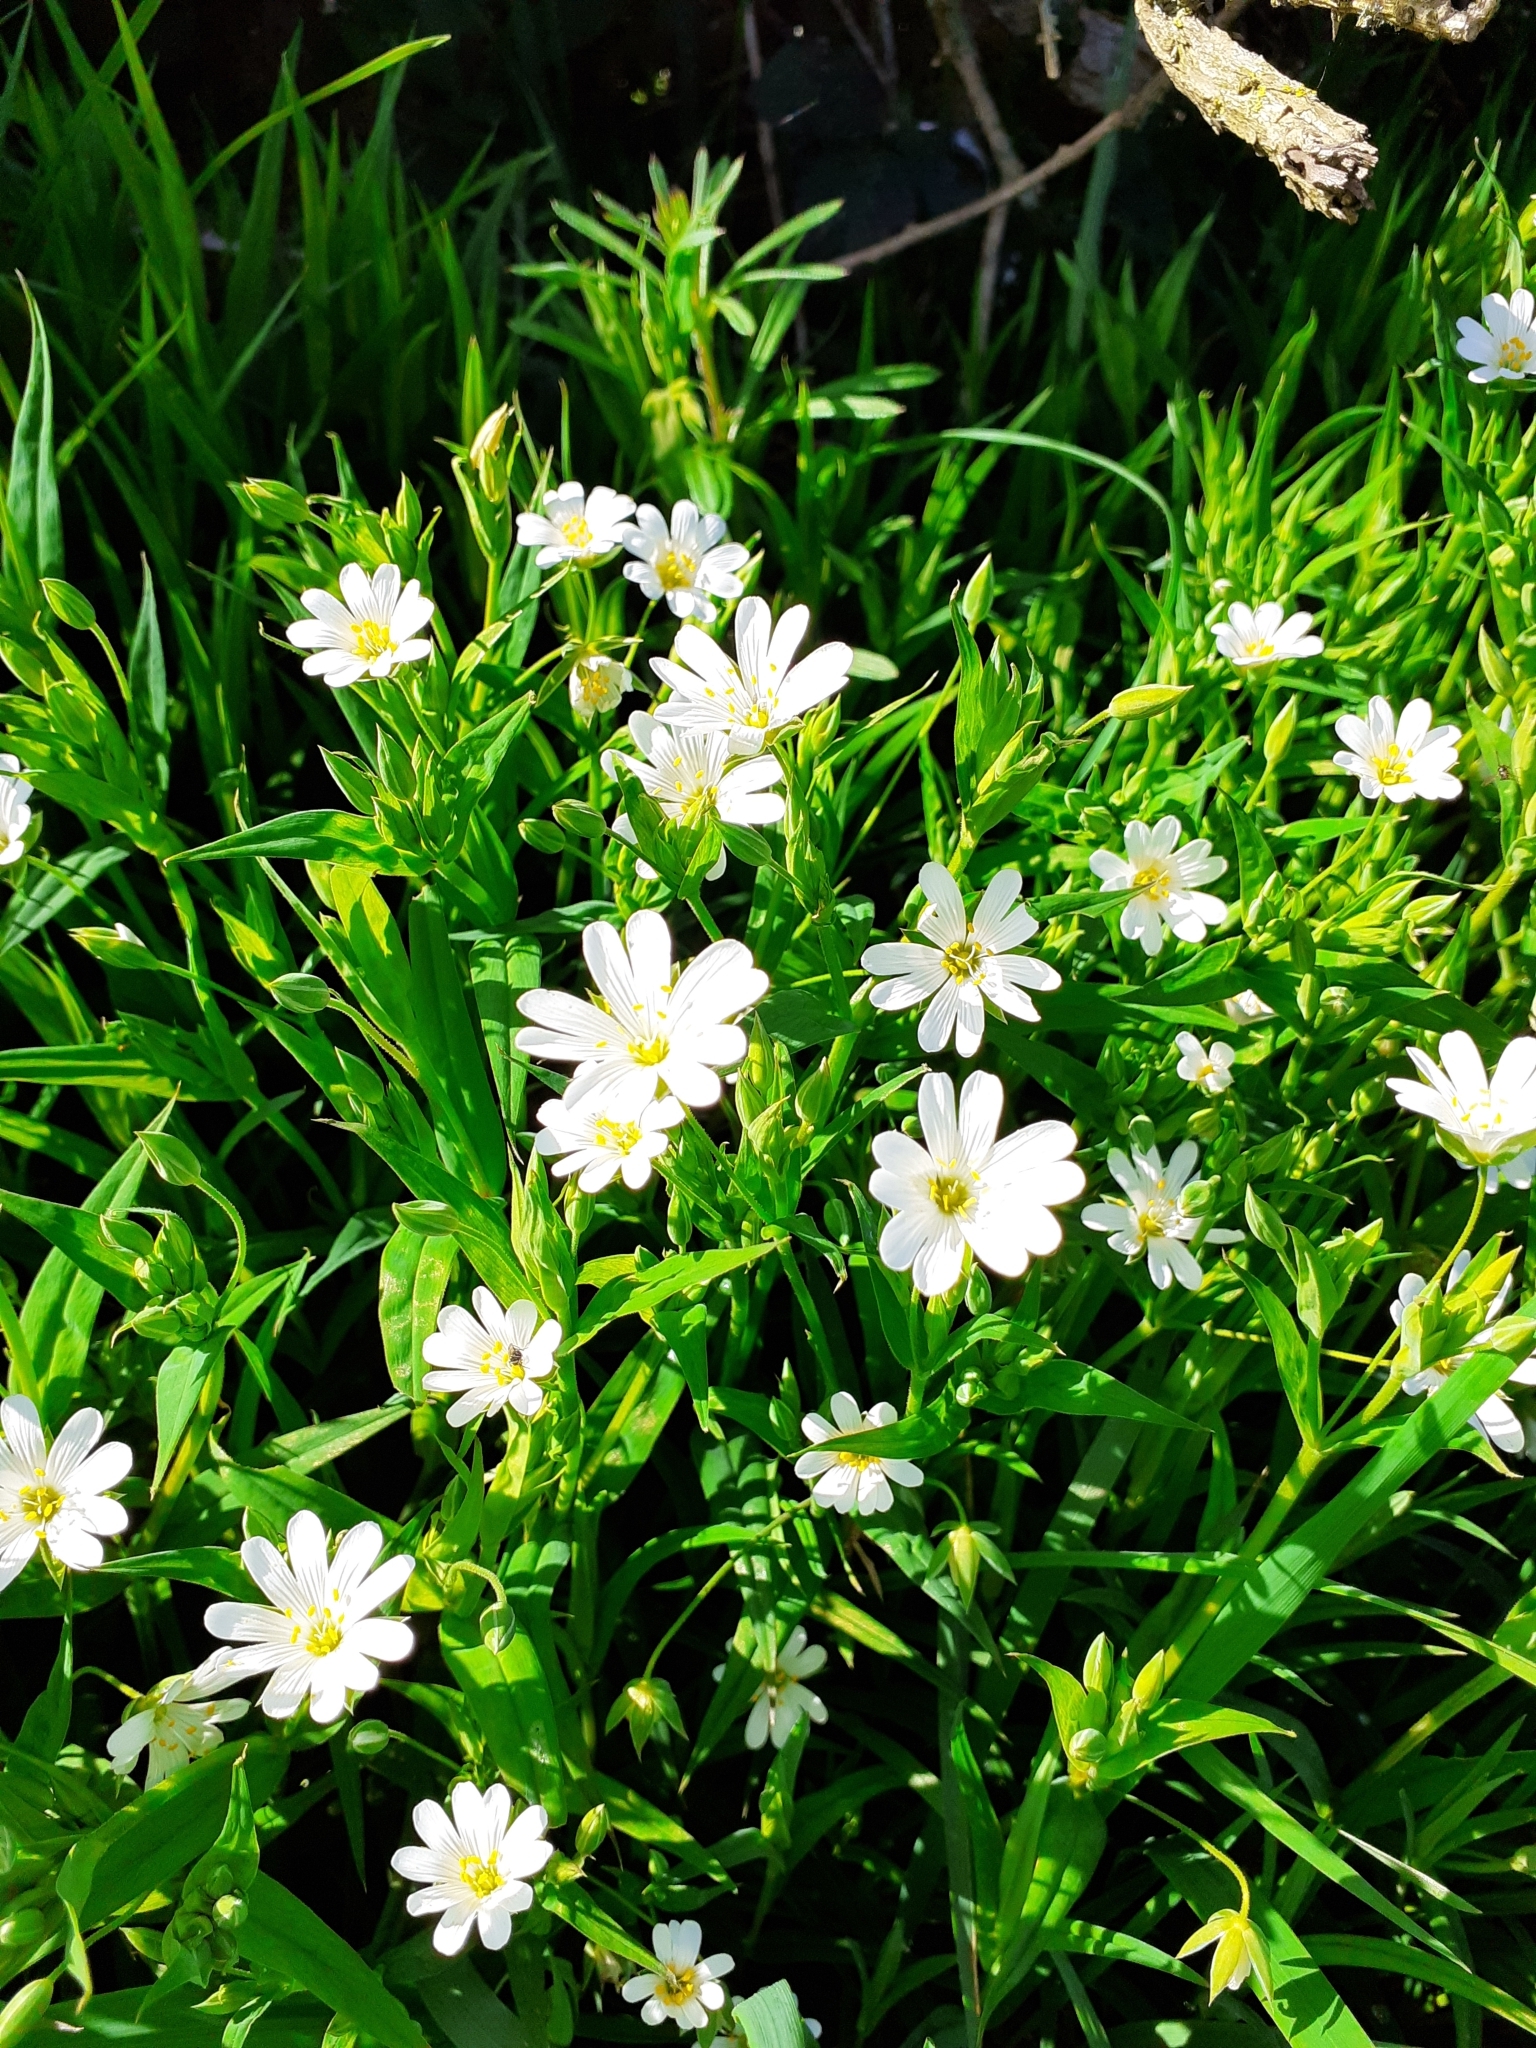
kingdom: Plantae
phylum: Tracheophyta
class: Magnoliopsida
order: Caryophyllales
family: Caryophyllaceae
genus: Rabelera
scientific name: Rabelera holostea
